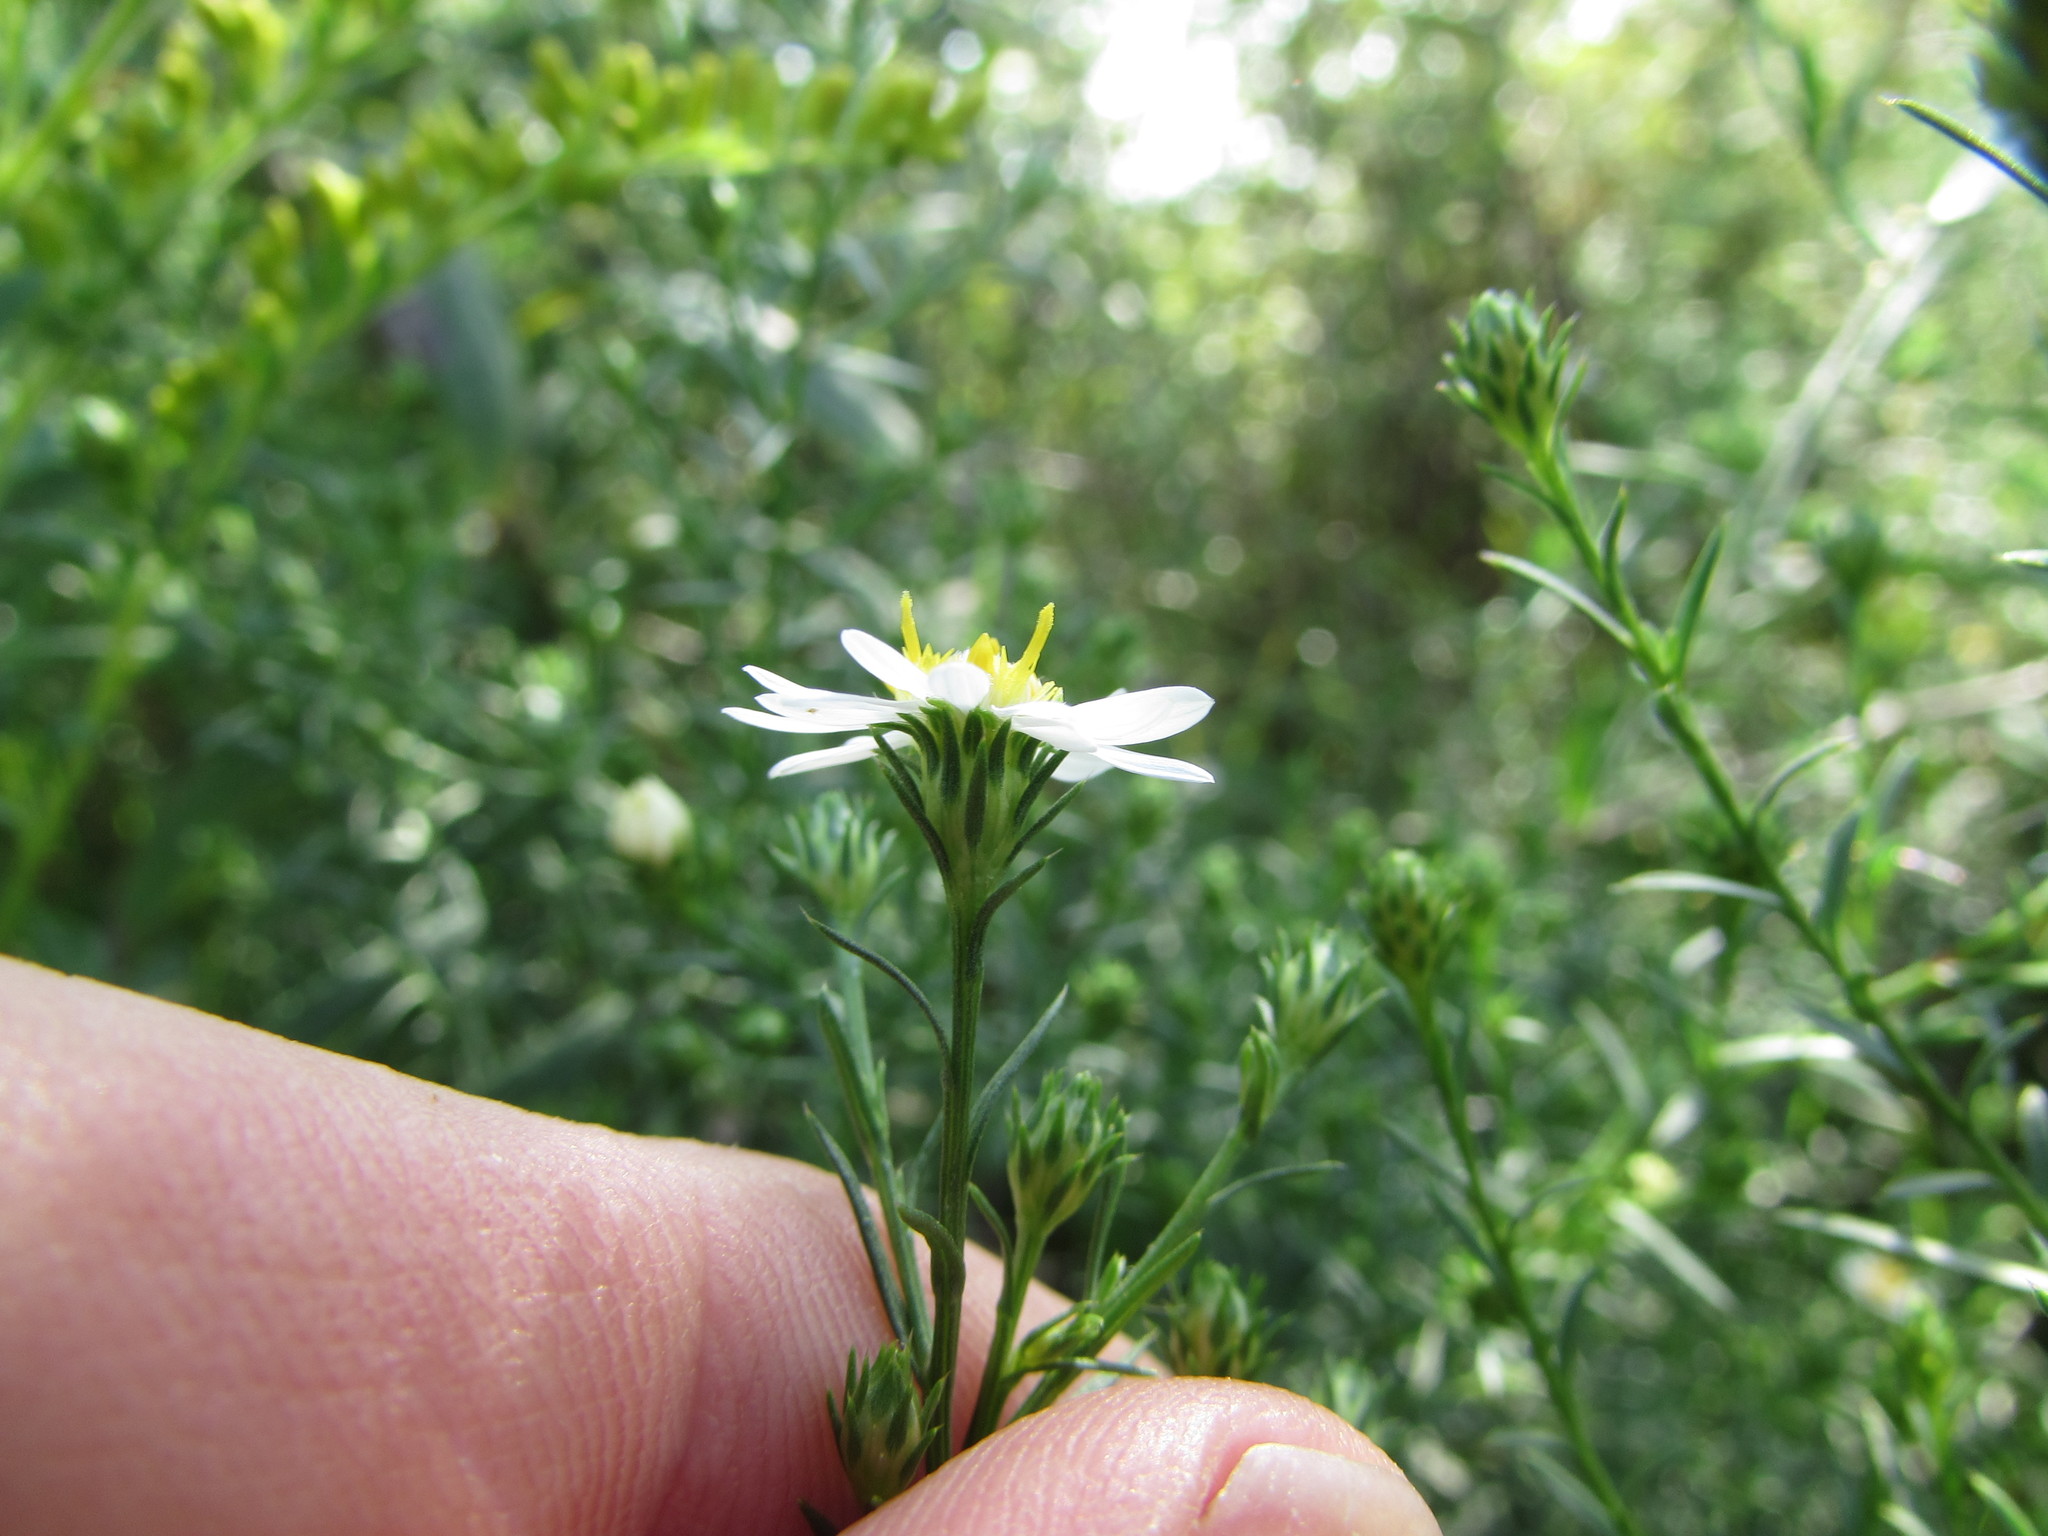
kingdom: Plantae
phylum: Tracheophyta
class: Magnoliopsida
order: Asterales
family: Asteraceae
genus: Symphyotrichum
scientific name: Symphyotrichum pilosum
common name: Awl aster
